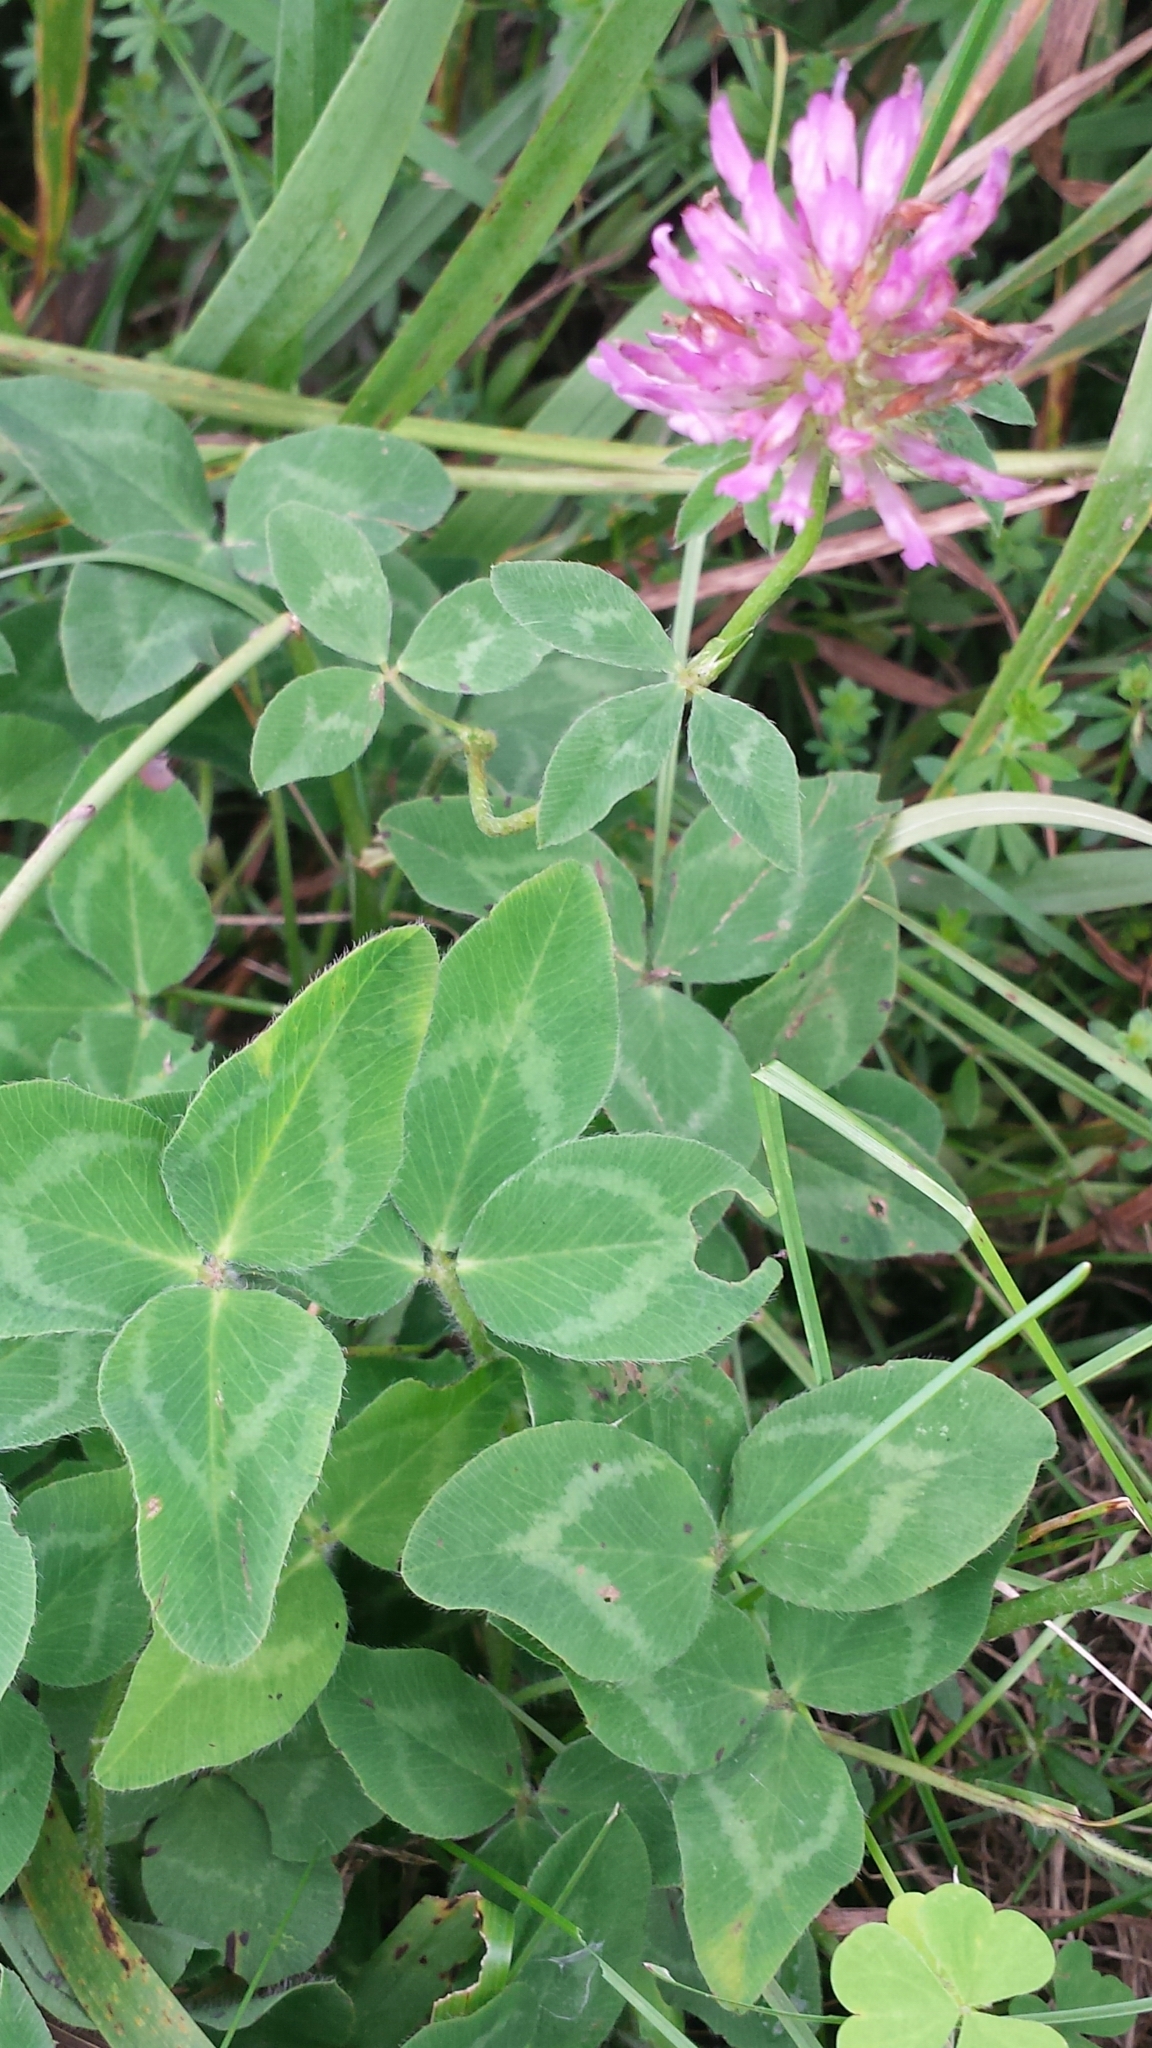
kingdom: Plantae
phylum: Tracheophyta
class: Magnoliopsida
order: Fabales
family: Fabaceae
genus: Trifolium
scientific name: Trifolium pratense
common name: Red clover
